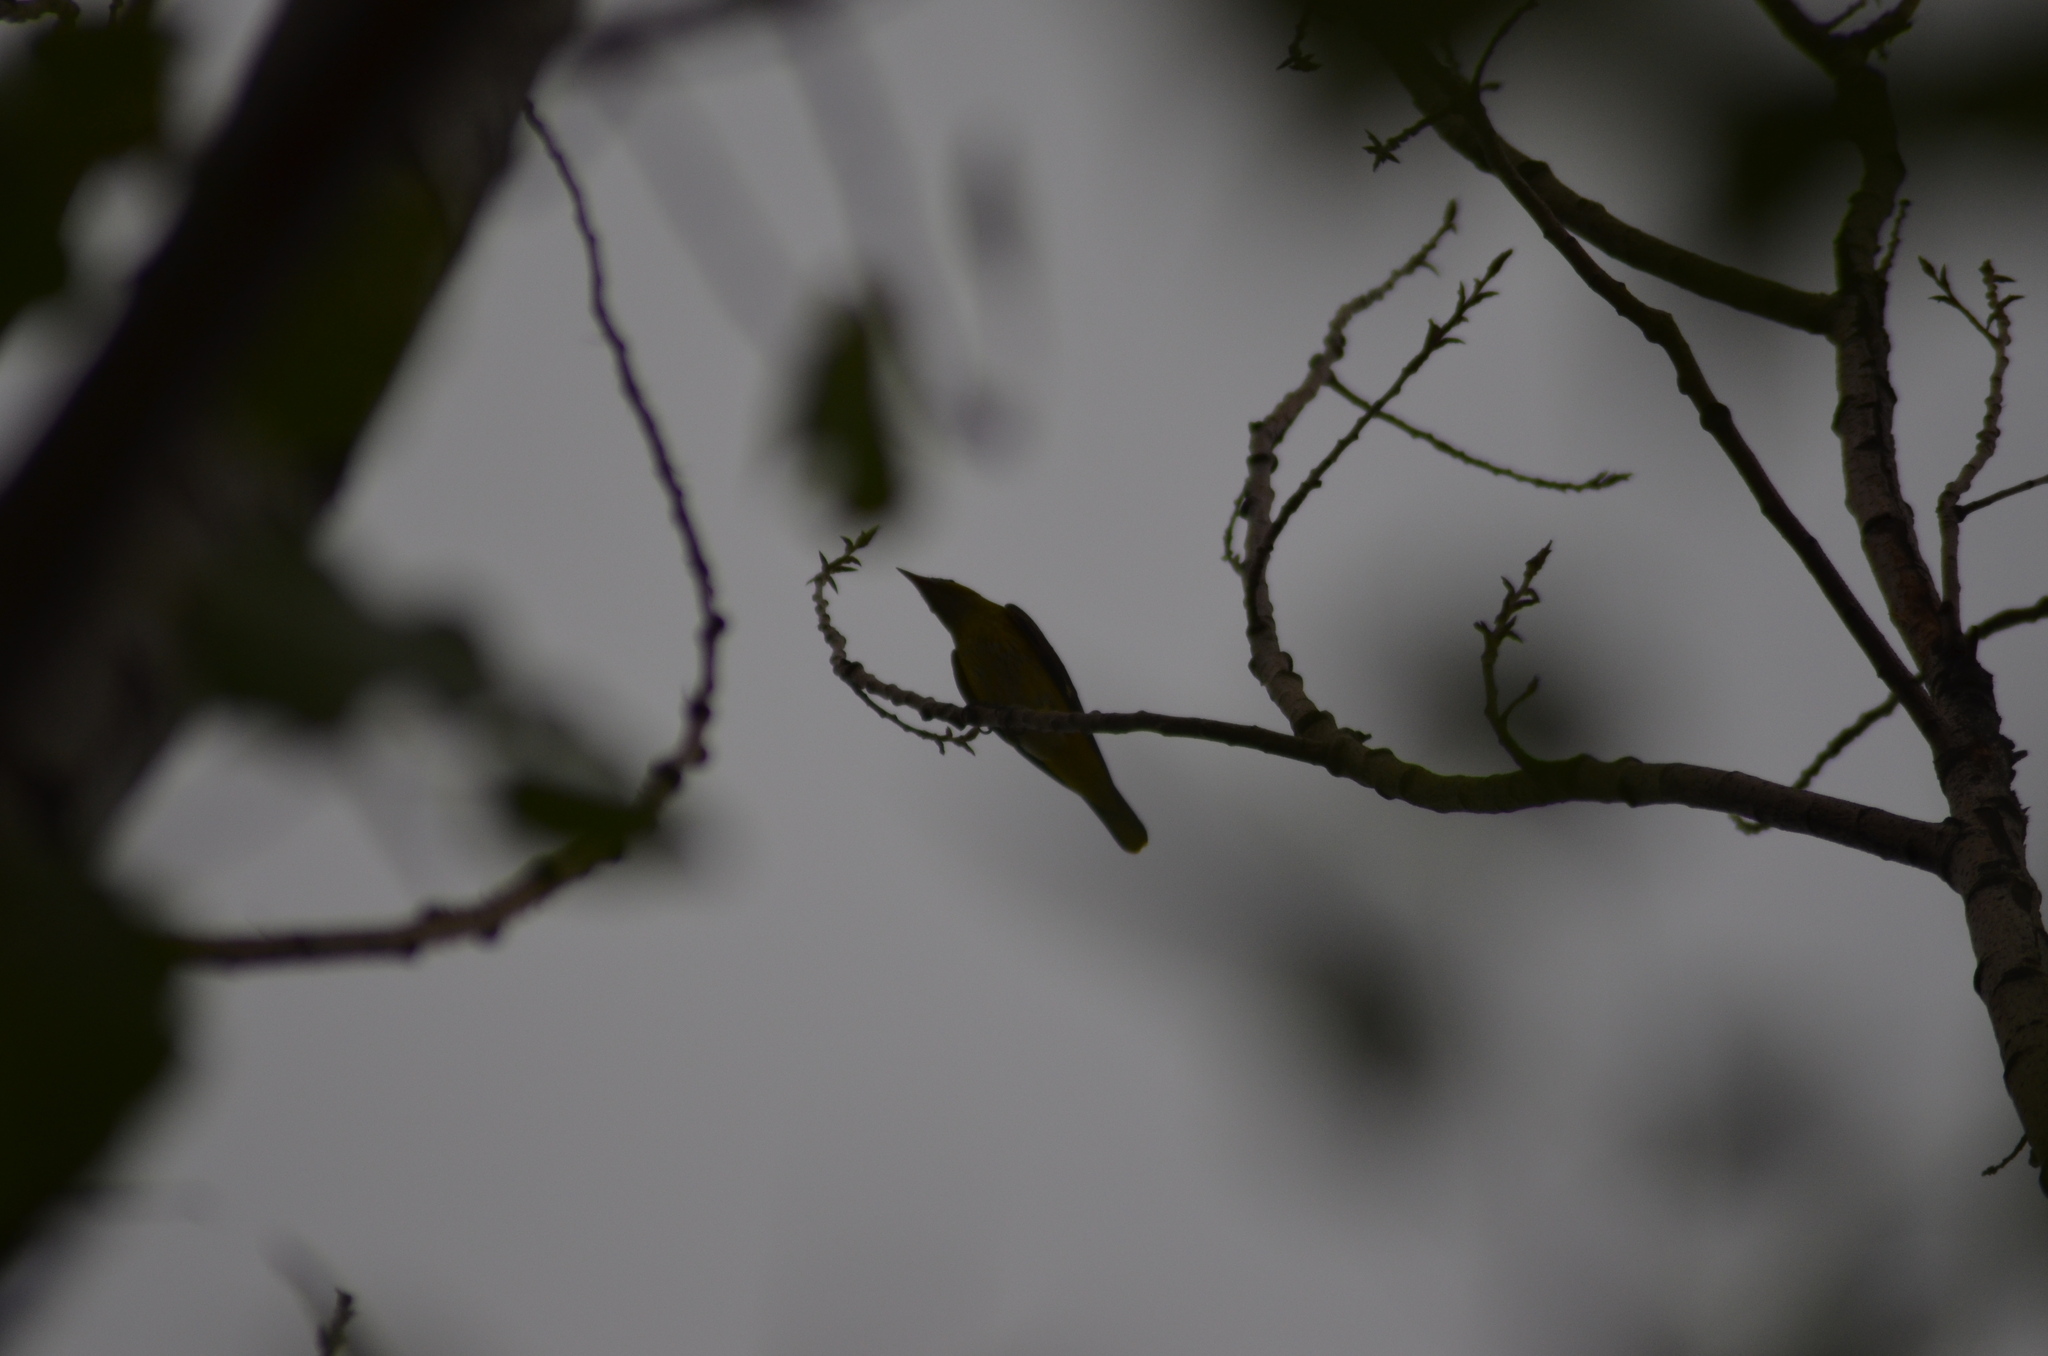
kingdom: Animalia
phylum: Chordata
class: Aves
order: Passeriformes
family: Oriolidae
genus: Oriolus
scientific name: Oriolus oriolus
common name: Eurasian golden oriole
